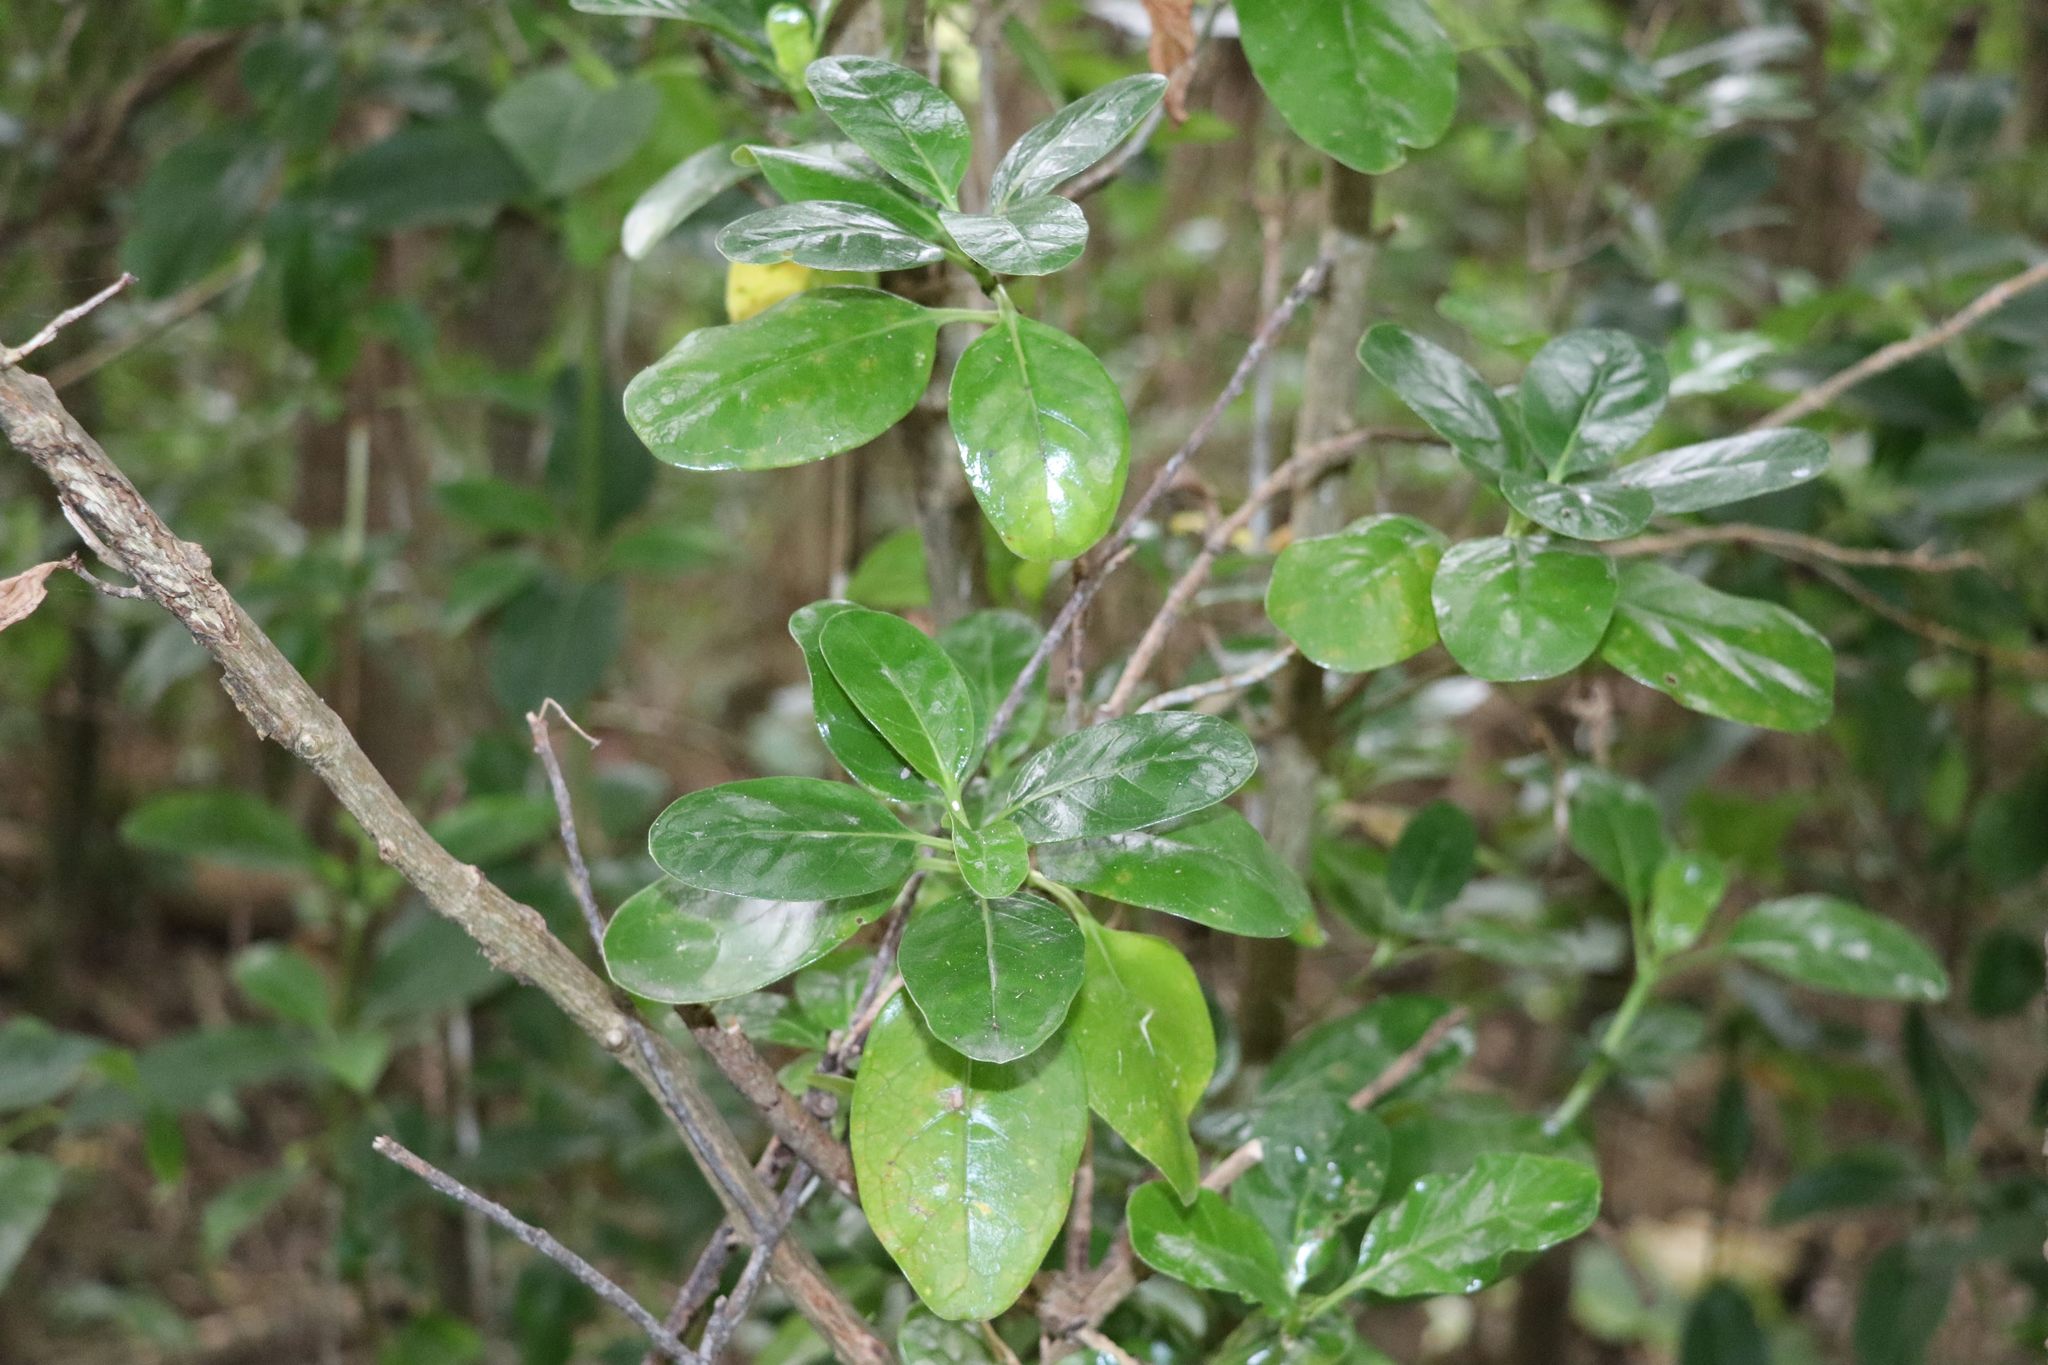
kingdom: Plantae
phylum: Tracheophyta
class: Magnoliopsida
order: Gentianales
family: Rubiaceae
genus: Coprosma
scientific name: Coprosma repens
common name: Tree bedstraw
